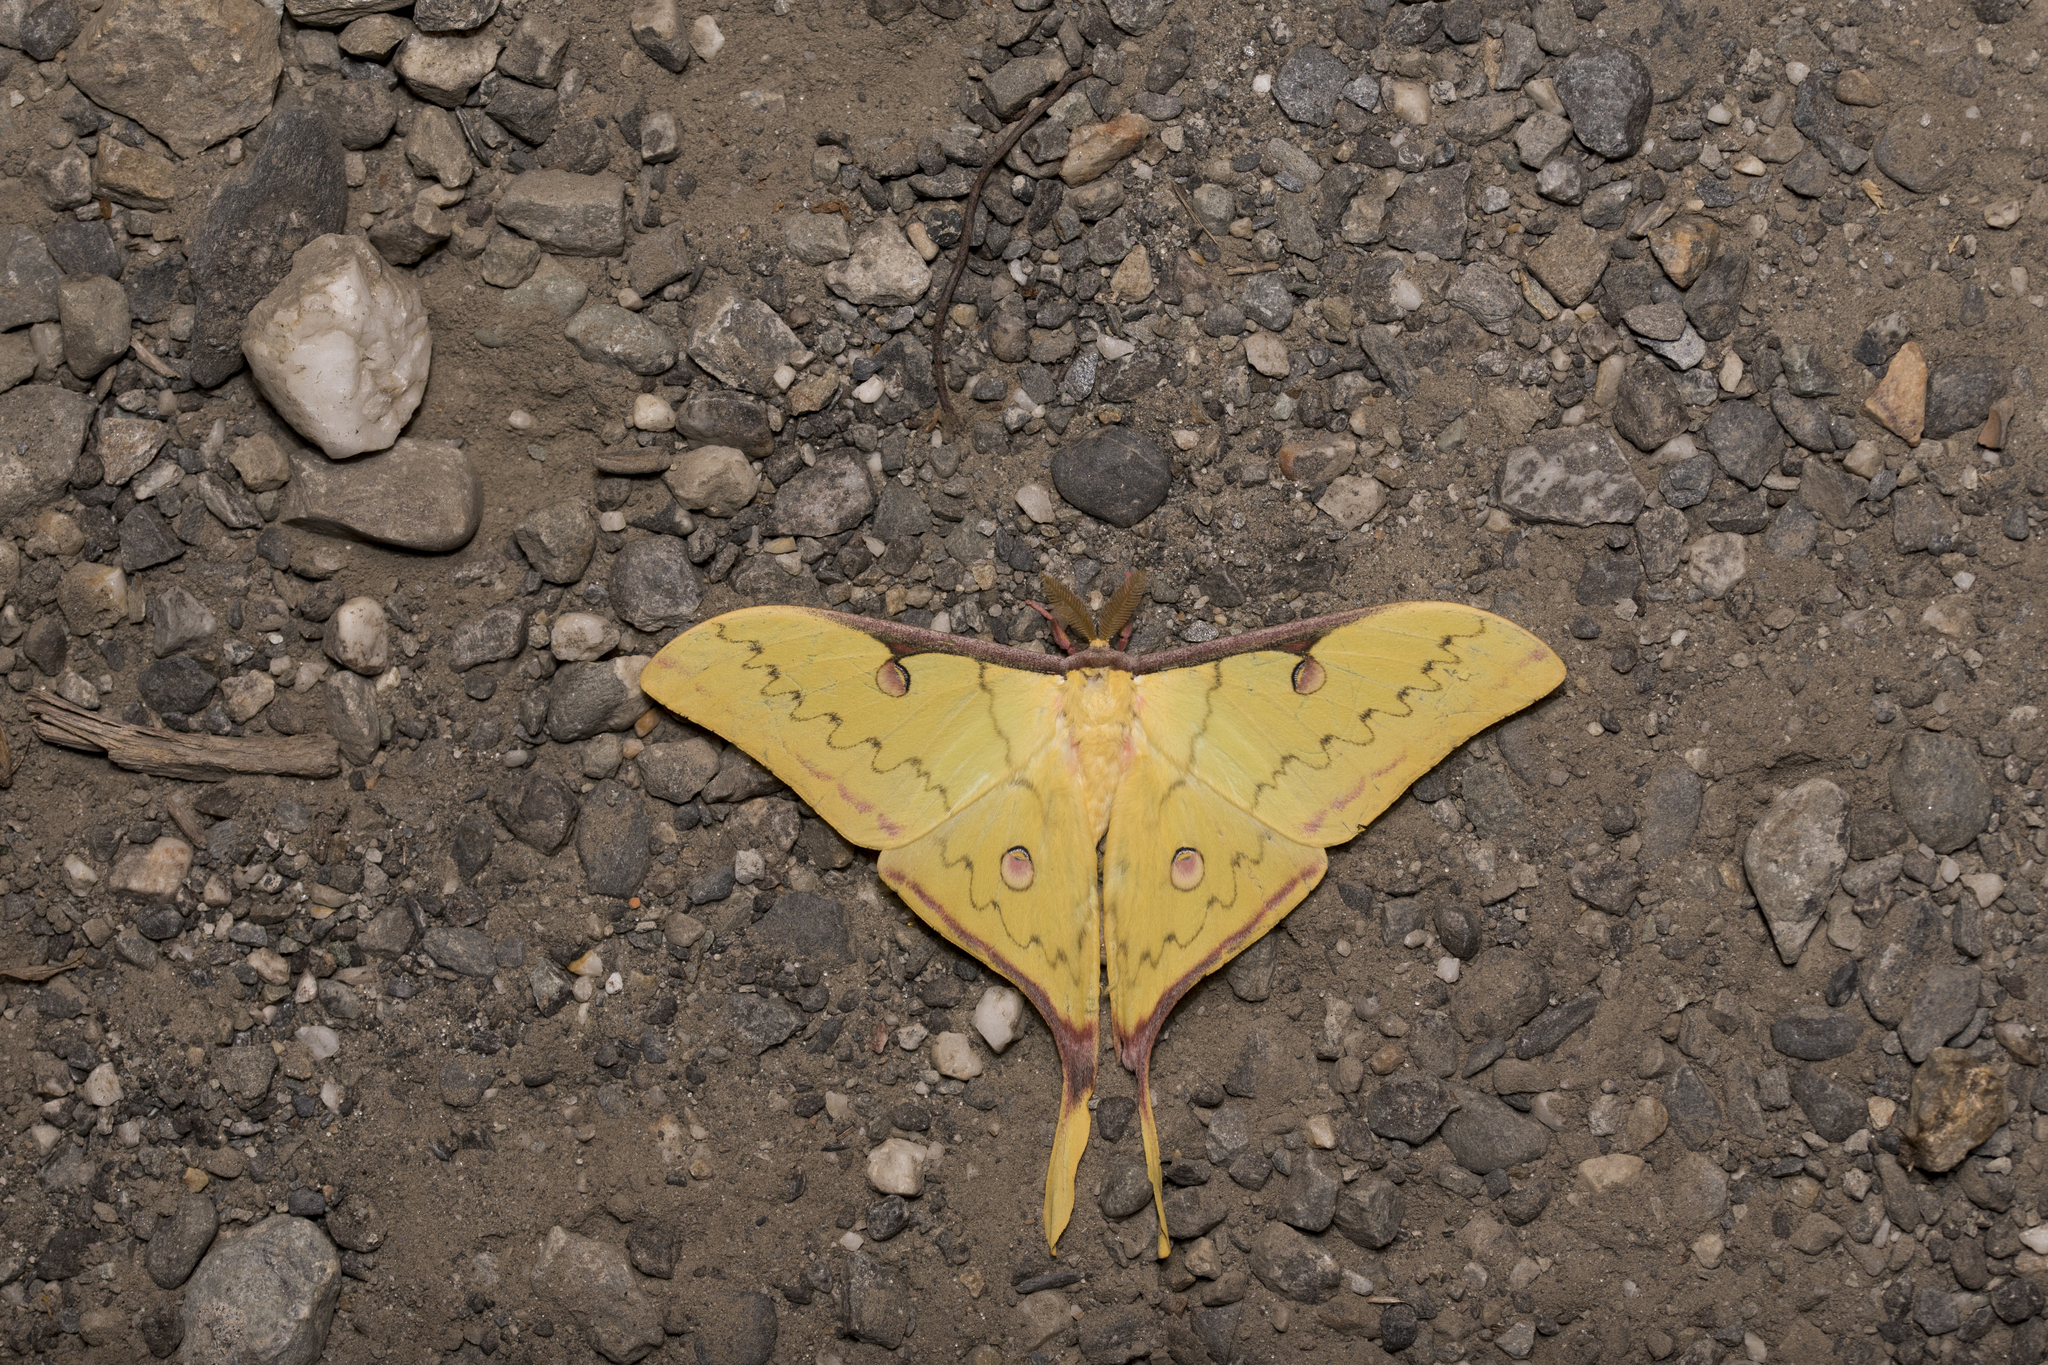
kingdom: Animalia
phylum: Arthropoda
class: Insecta
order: Lepidoptera
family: Saturniidae
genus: Actias
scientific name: Actias sinensis
